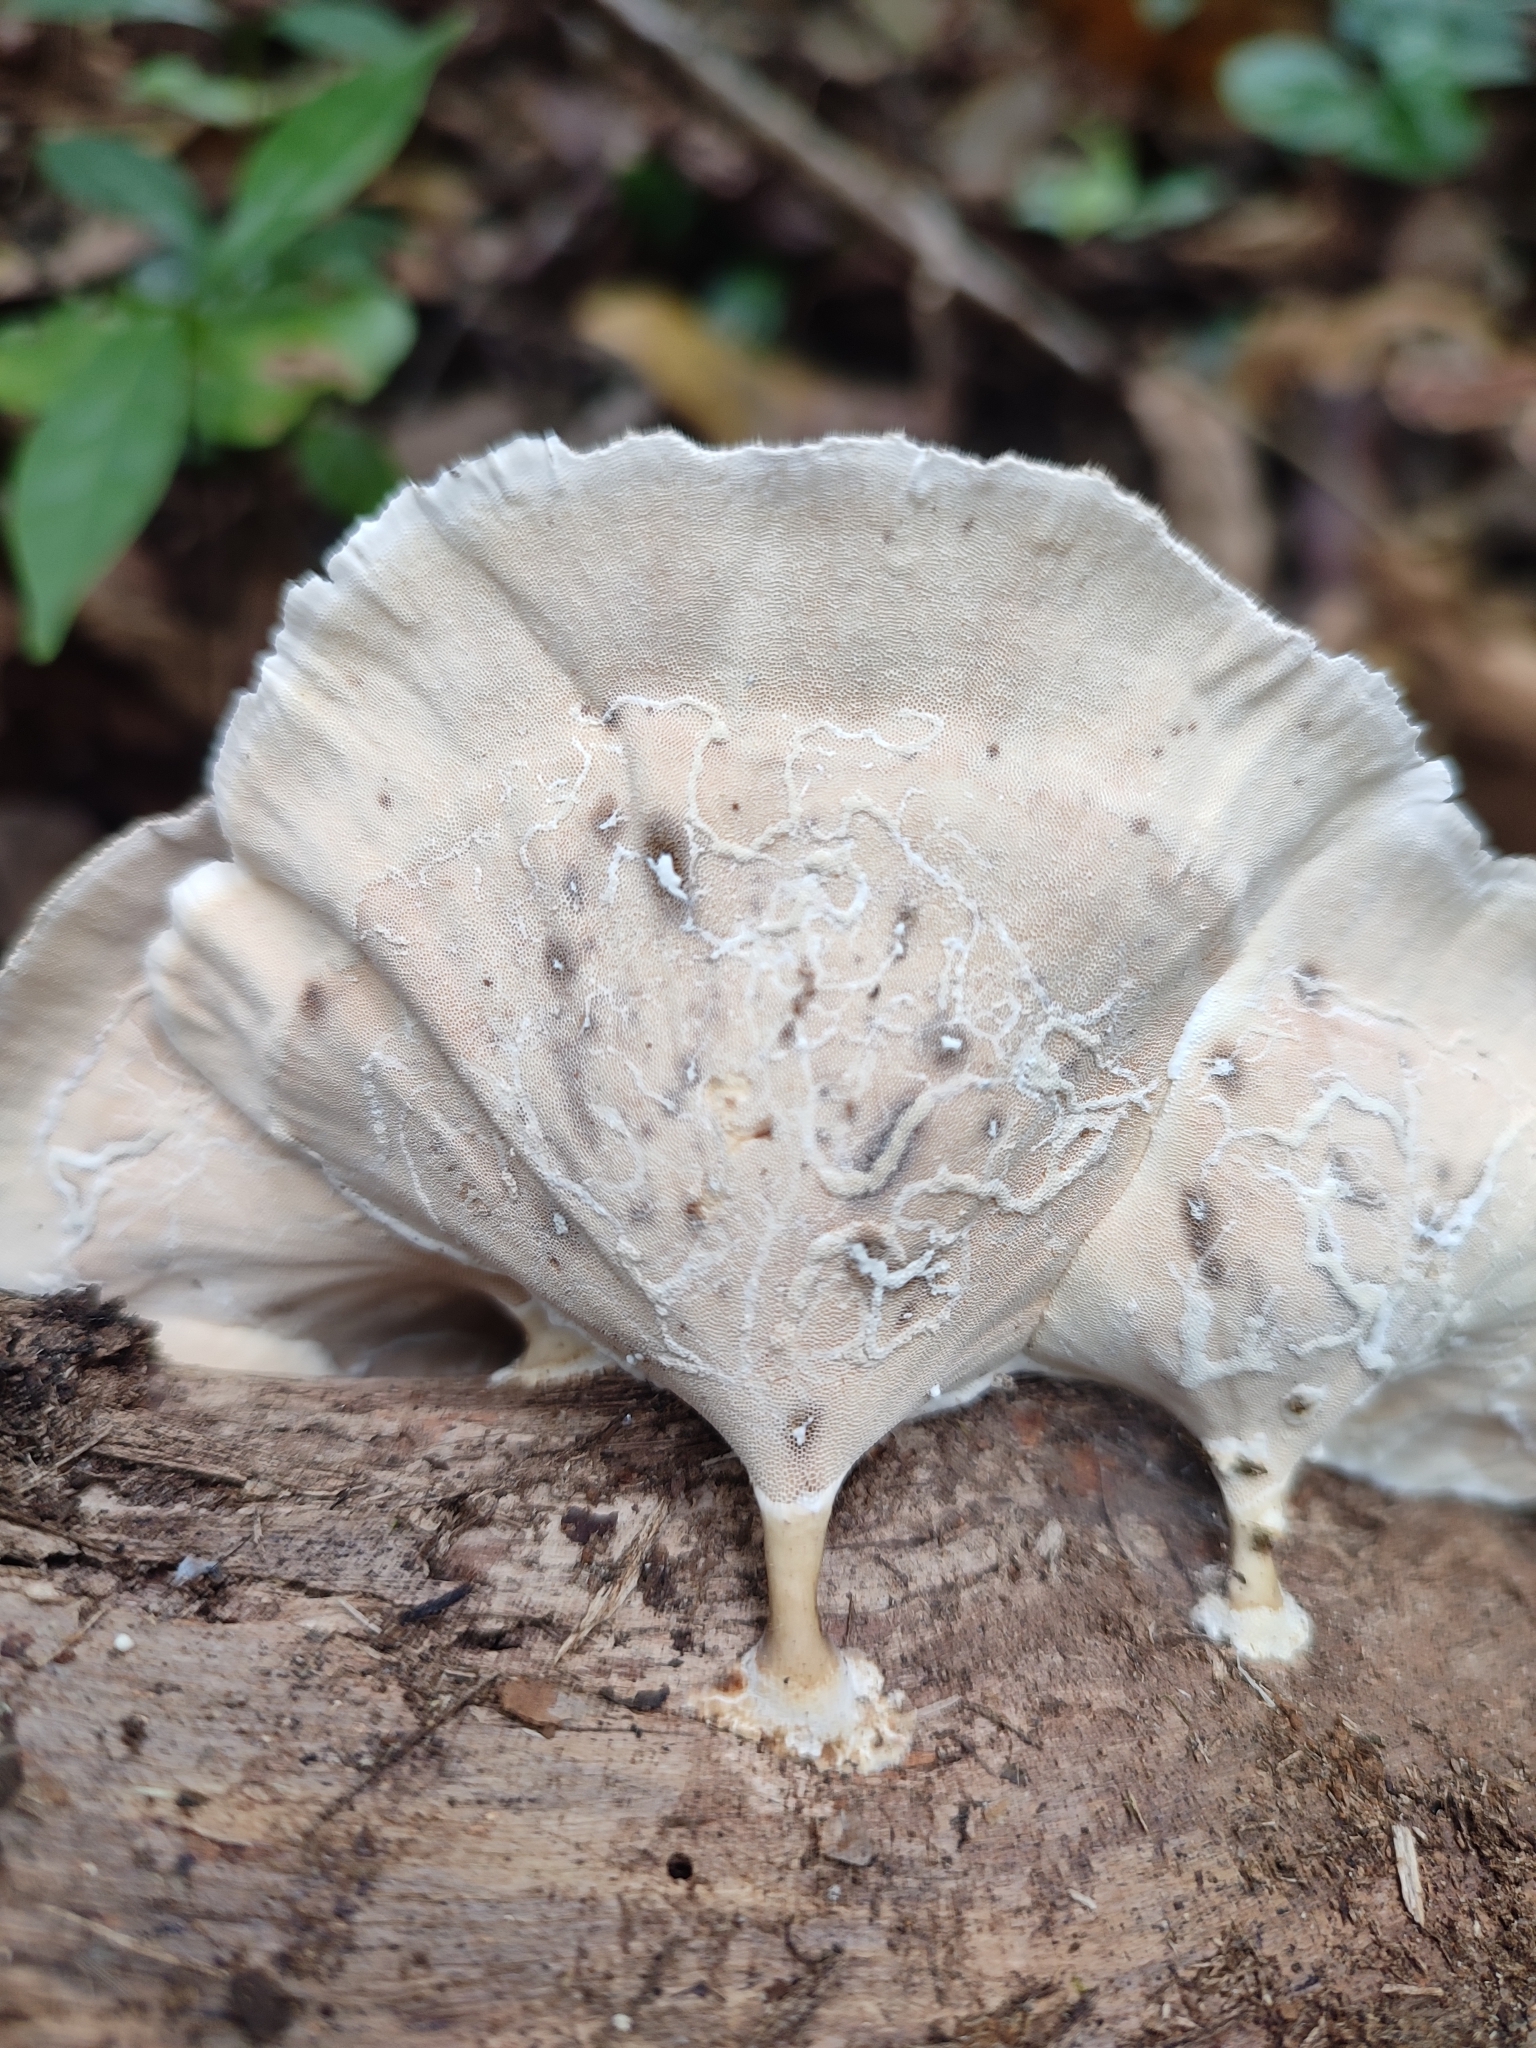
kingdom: Fungi
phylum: Basidiomycota
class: Agaricomycetes
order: Polyporales
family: Polyporaceae
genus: Microporus
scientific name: Microporus xanthopus
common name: Yellow-stemmed micropore
